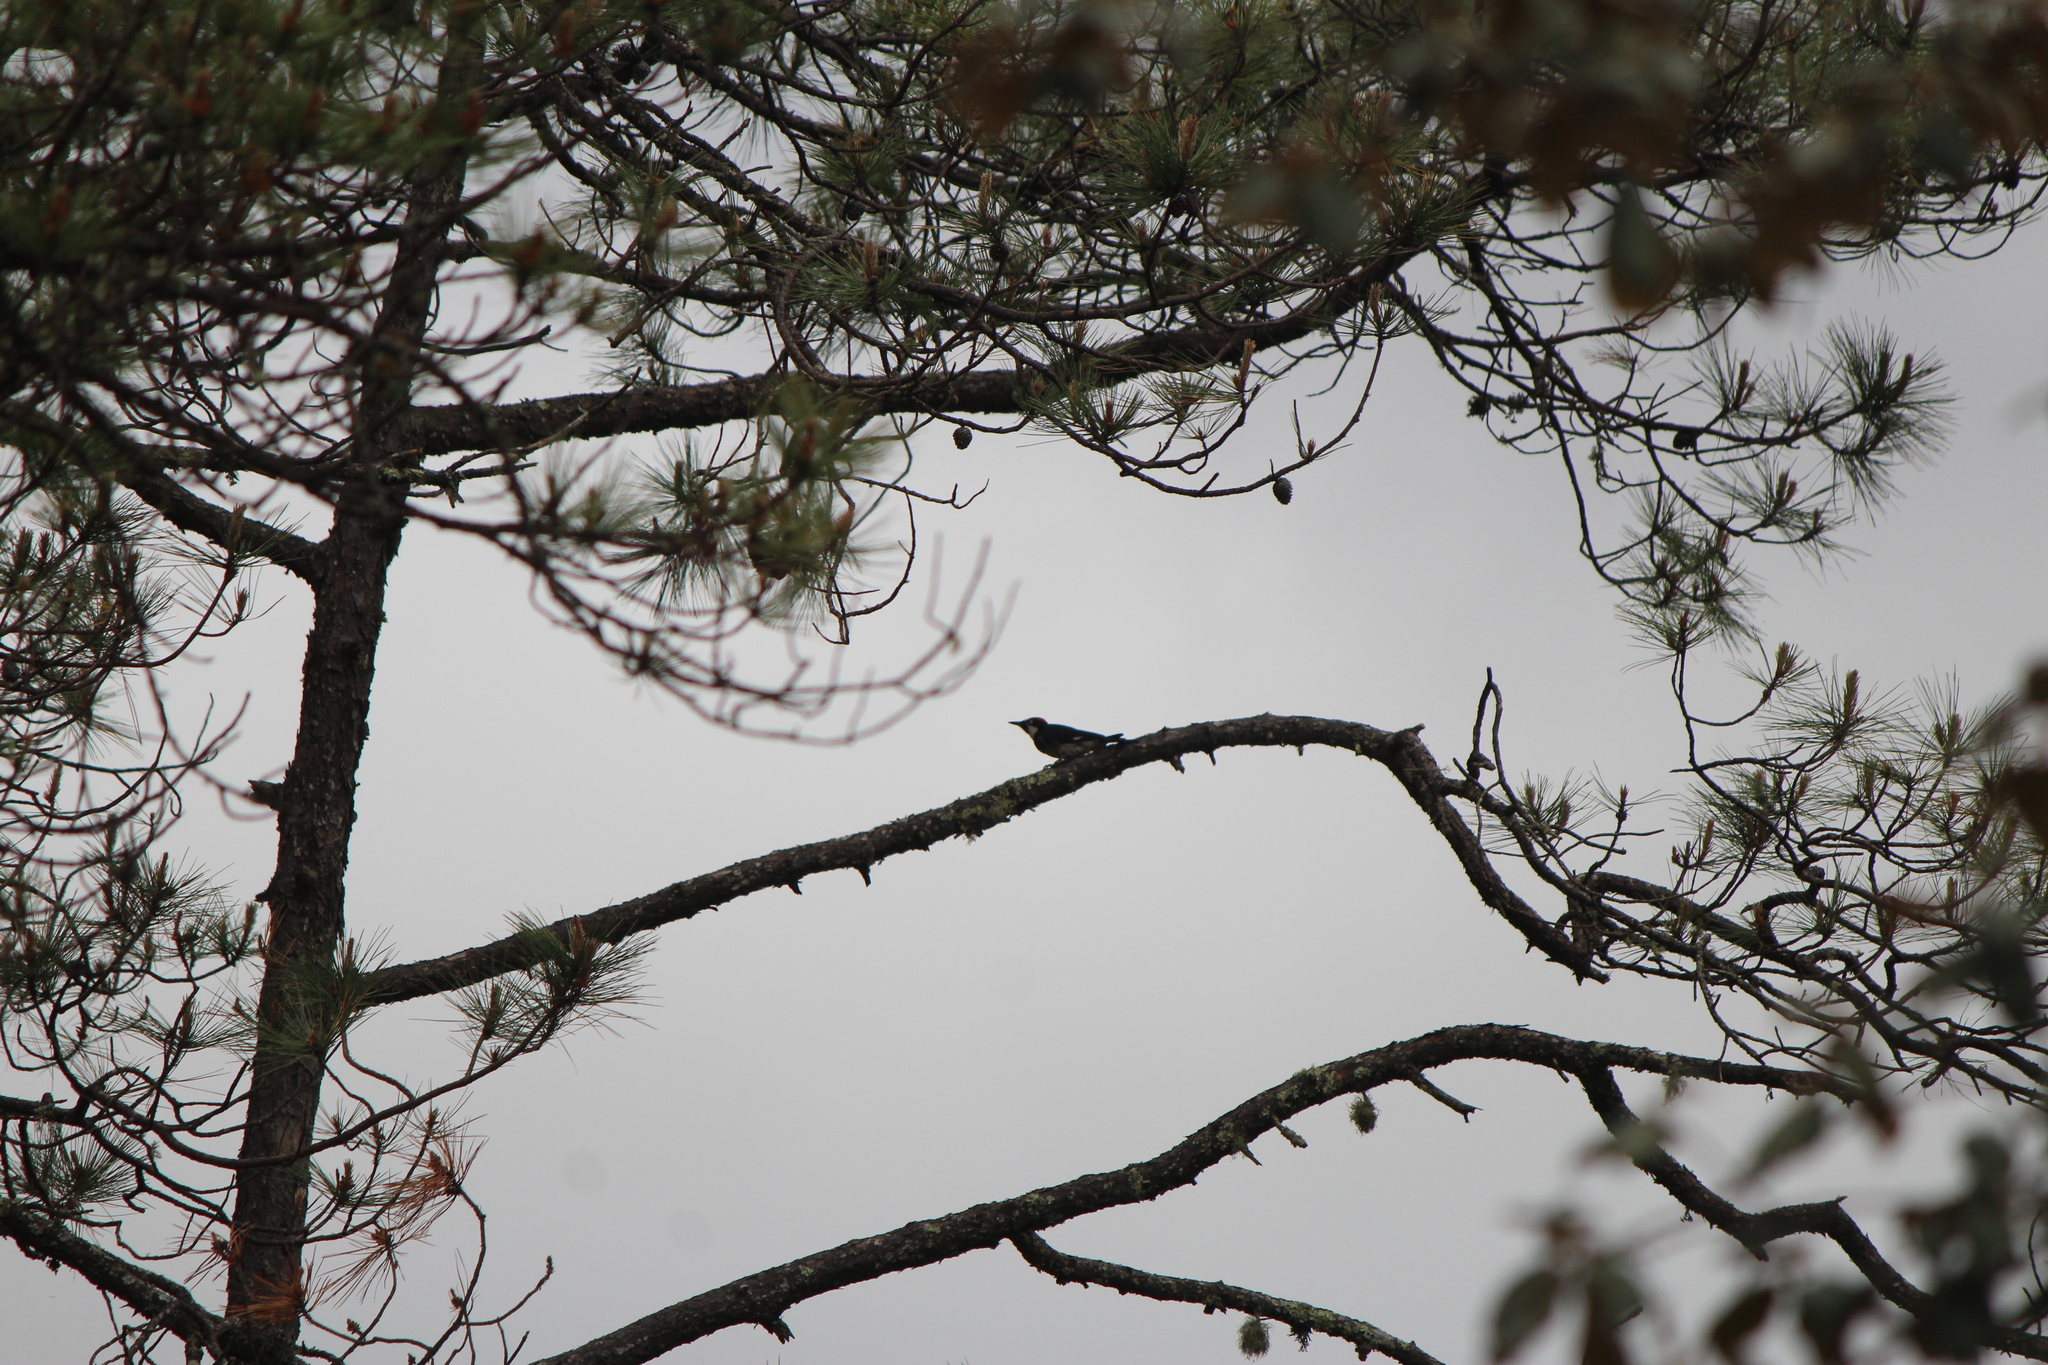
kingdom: Animalia
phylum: Chordata
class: Aves
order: Piciformes
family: Picidae
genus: Melanerpes
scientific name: Melanerpes formicivorus
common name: Acorn woodpecker
